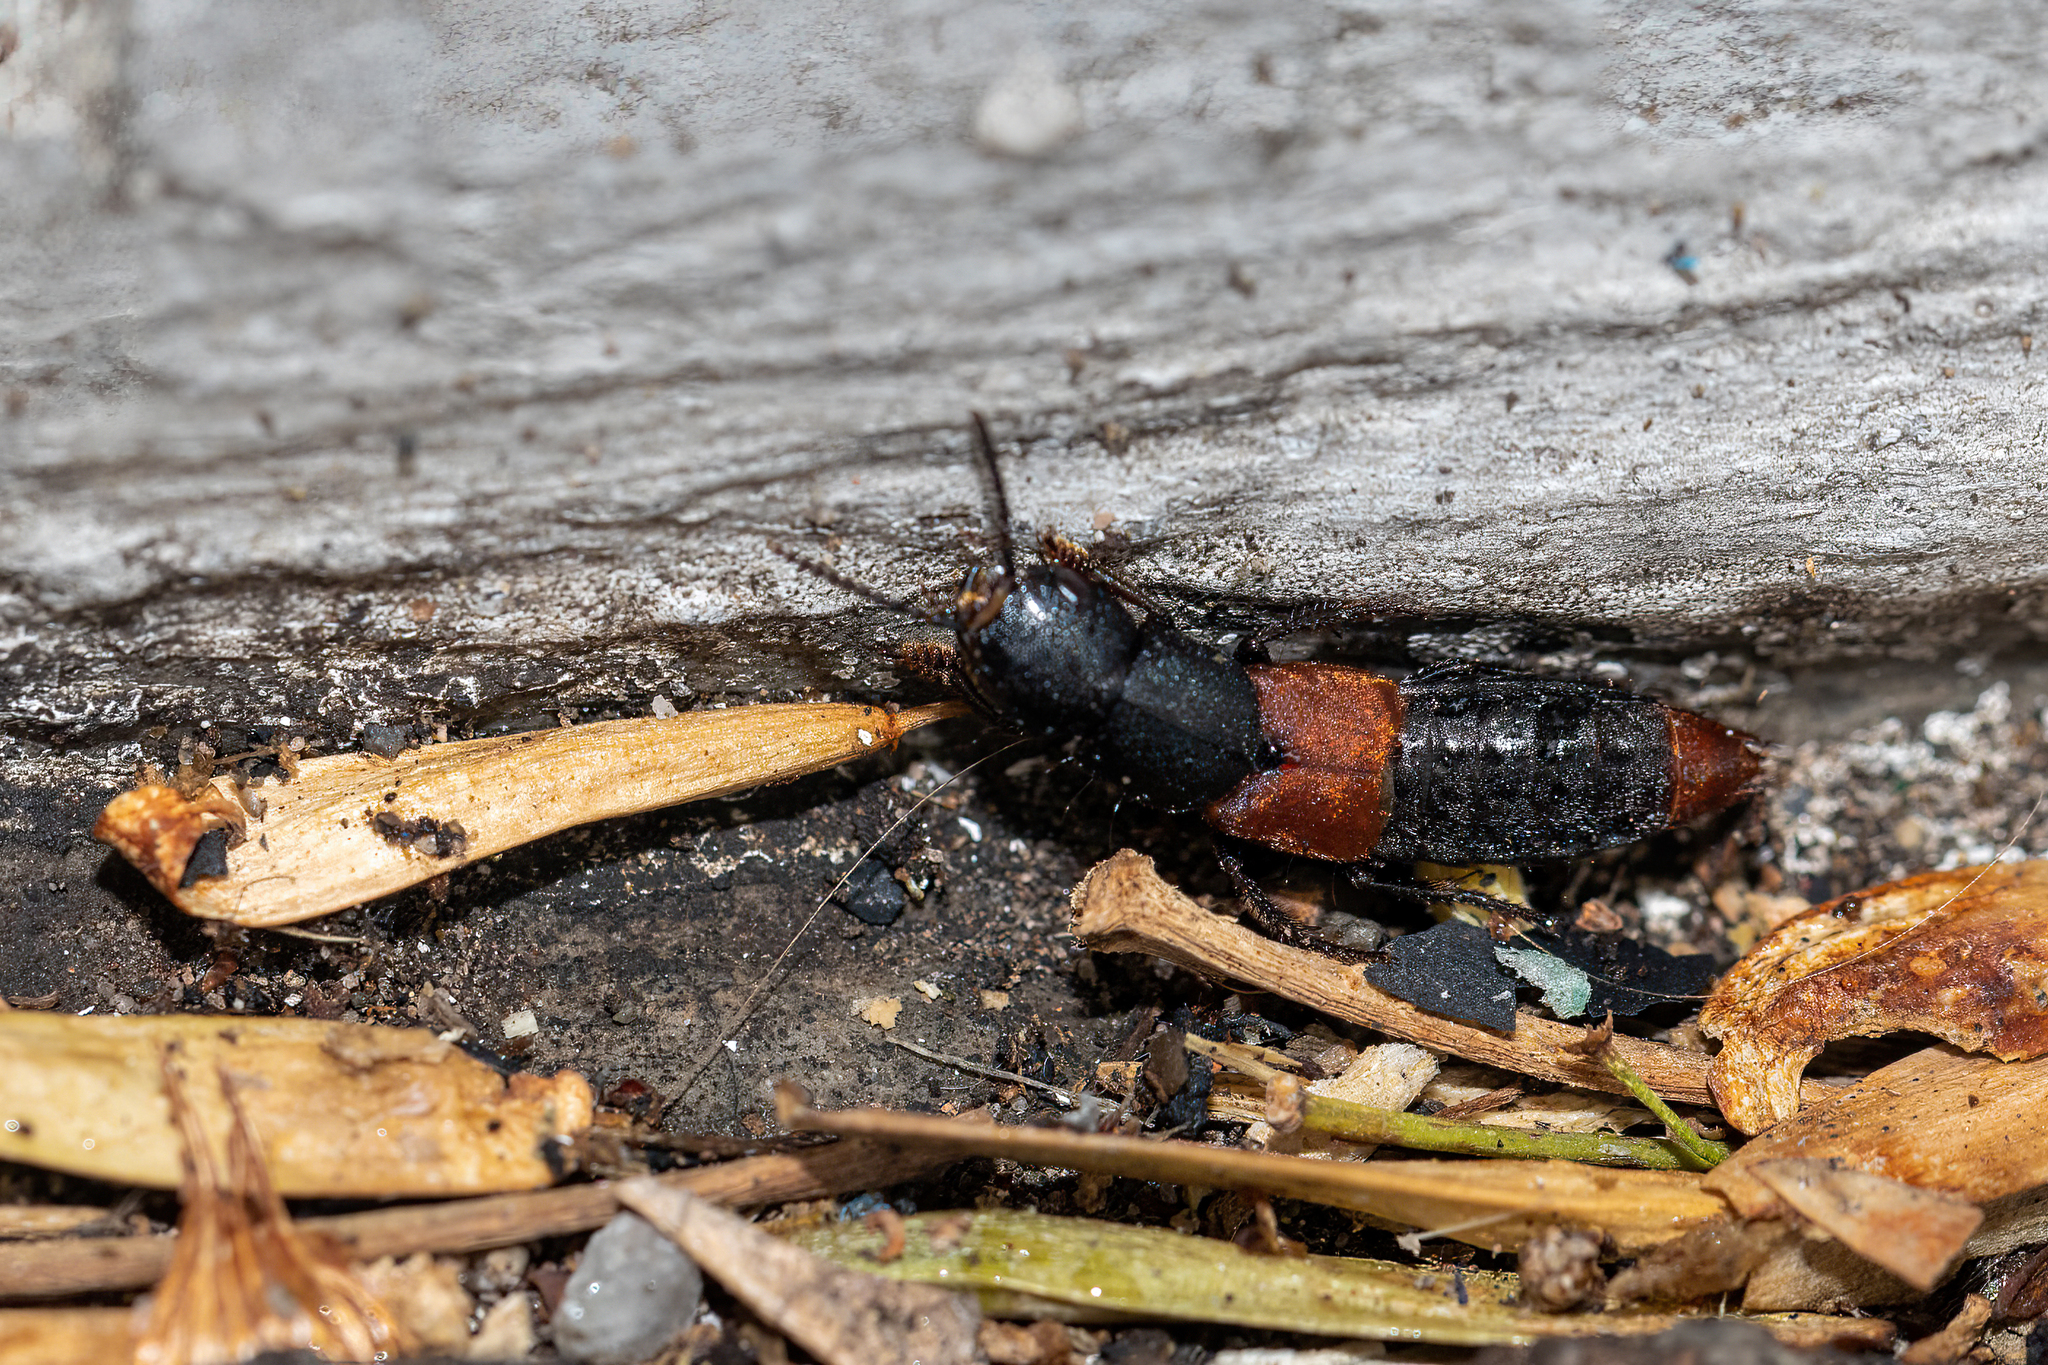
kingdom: Animalia
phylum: Arthropoda
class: Insecta
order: Coleoptera
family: Staphylinidae
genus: Platydracus
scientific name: Platydracus phoenicurus
